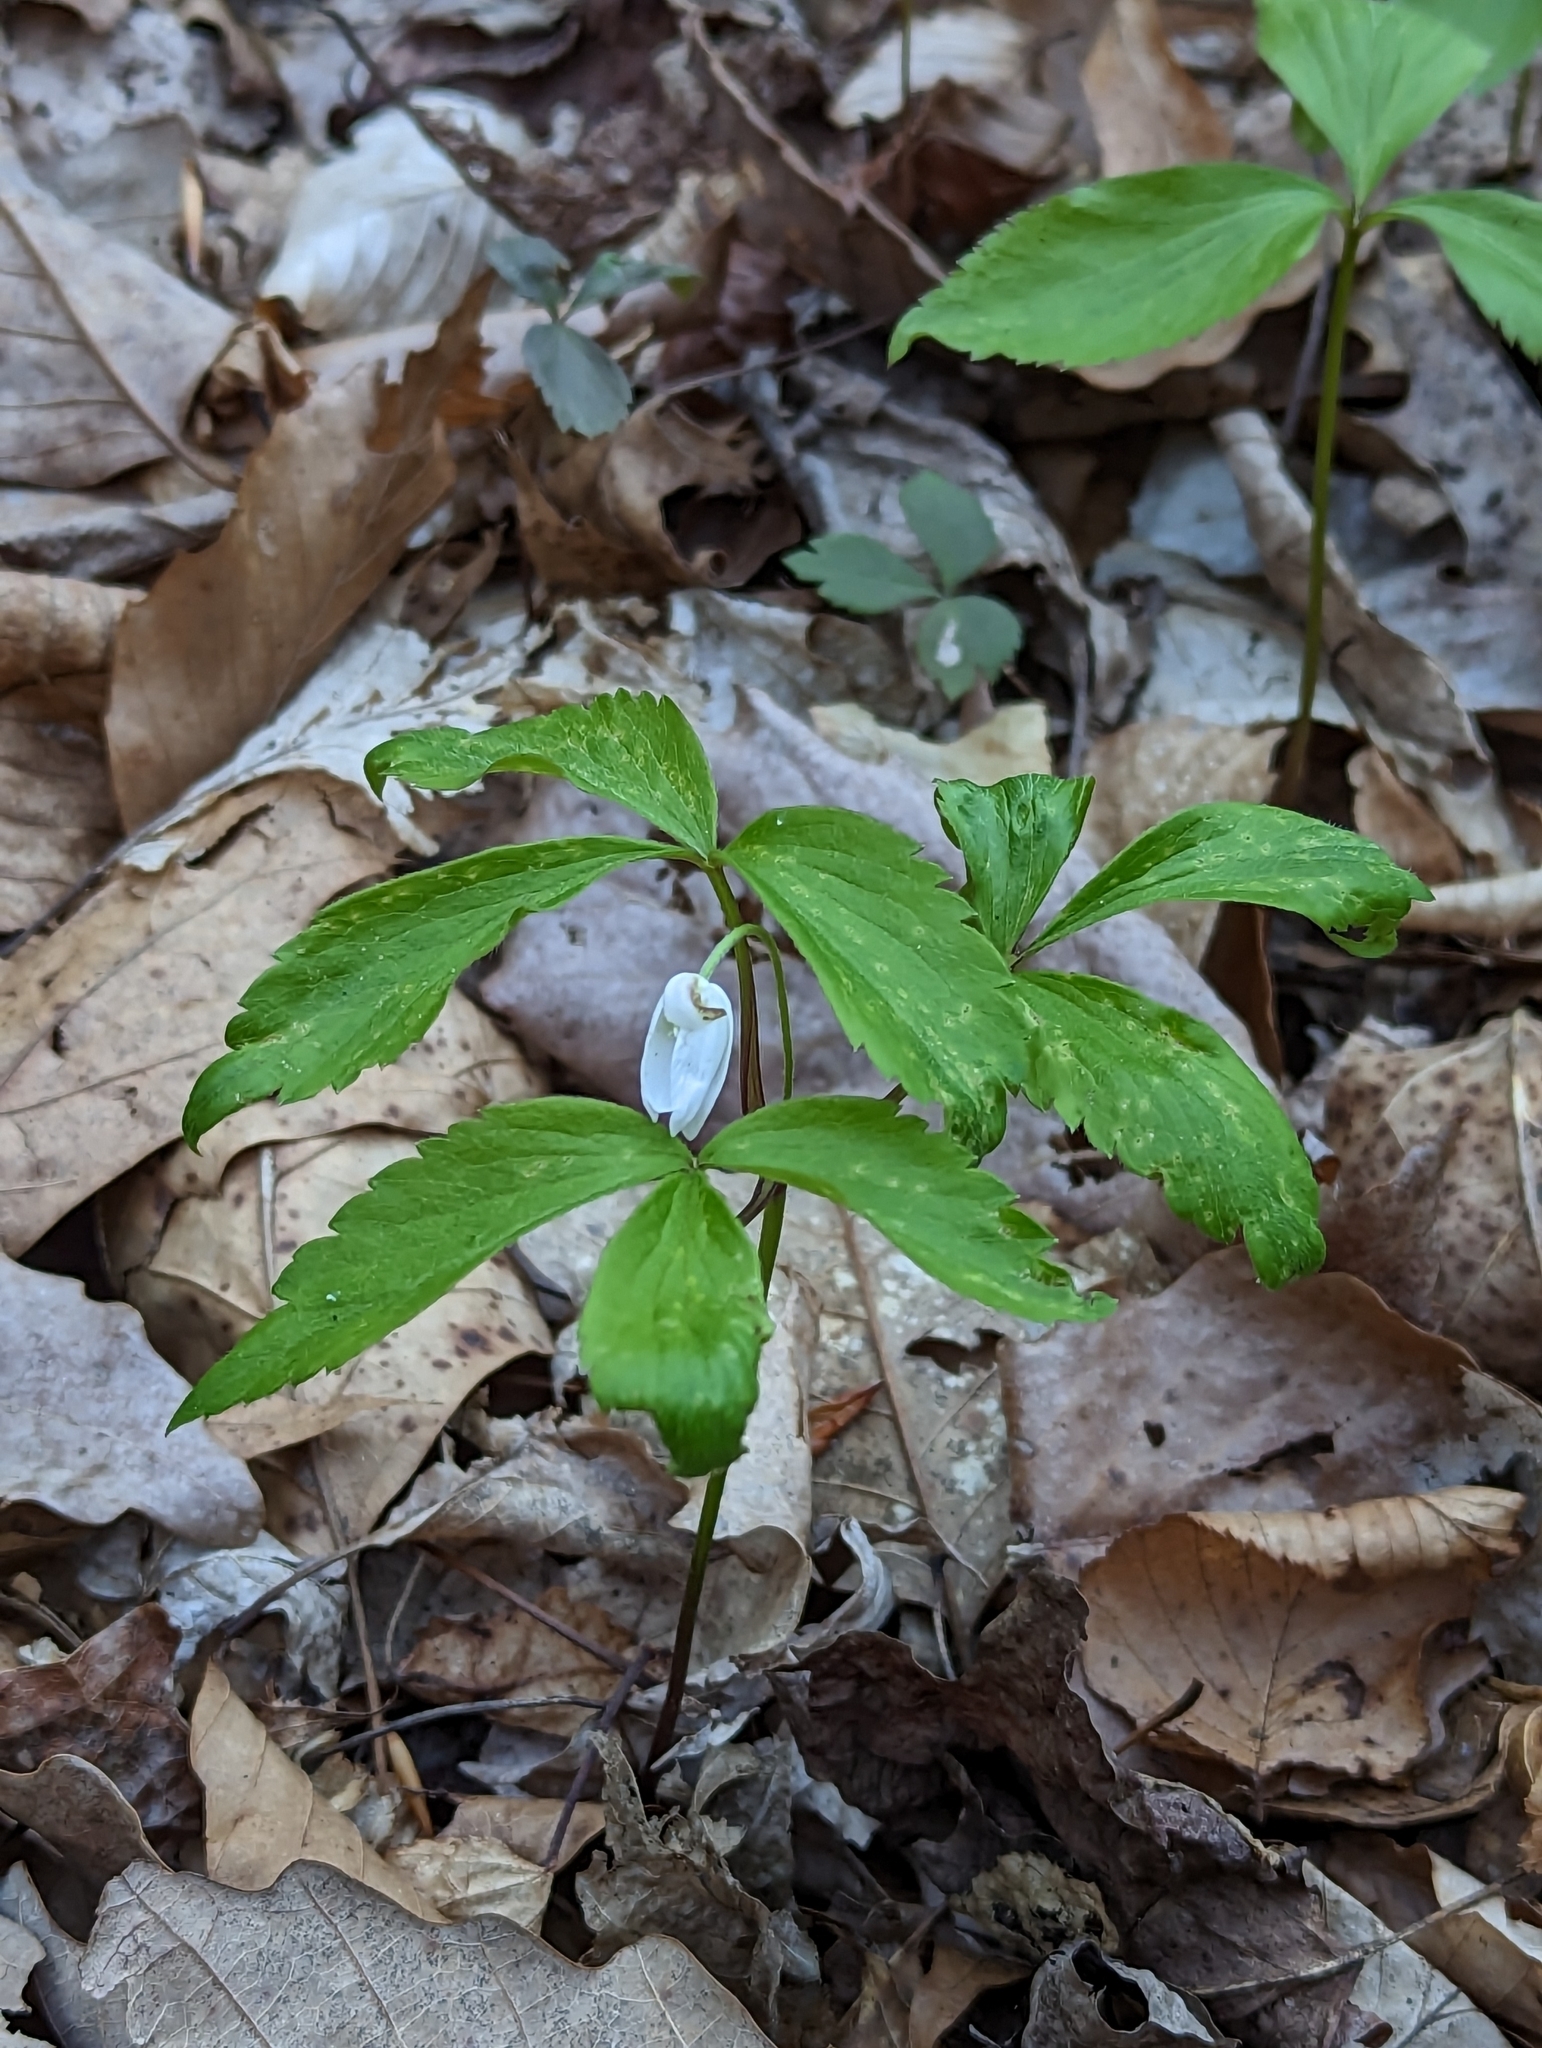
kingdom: Plantae
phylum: Tracheophyta
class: Magnoliopsida
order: Ranunculales
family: Ranunculaceae
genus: Anemone
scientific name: Anemone lancifolia
